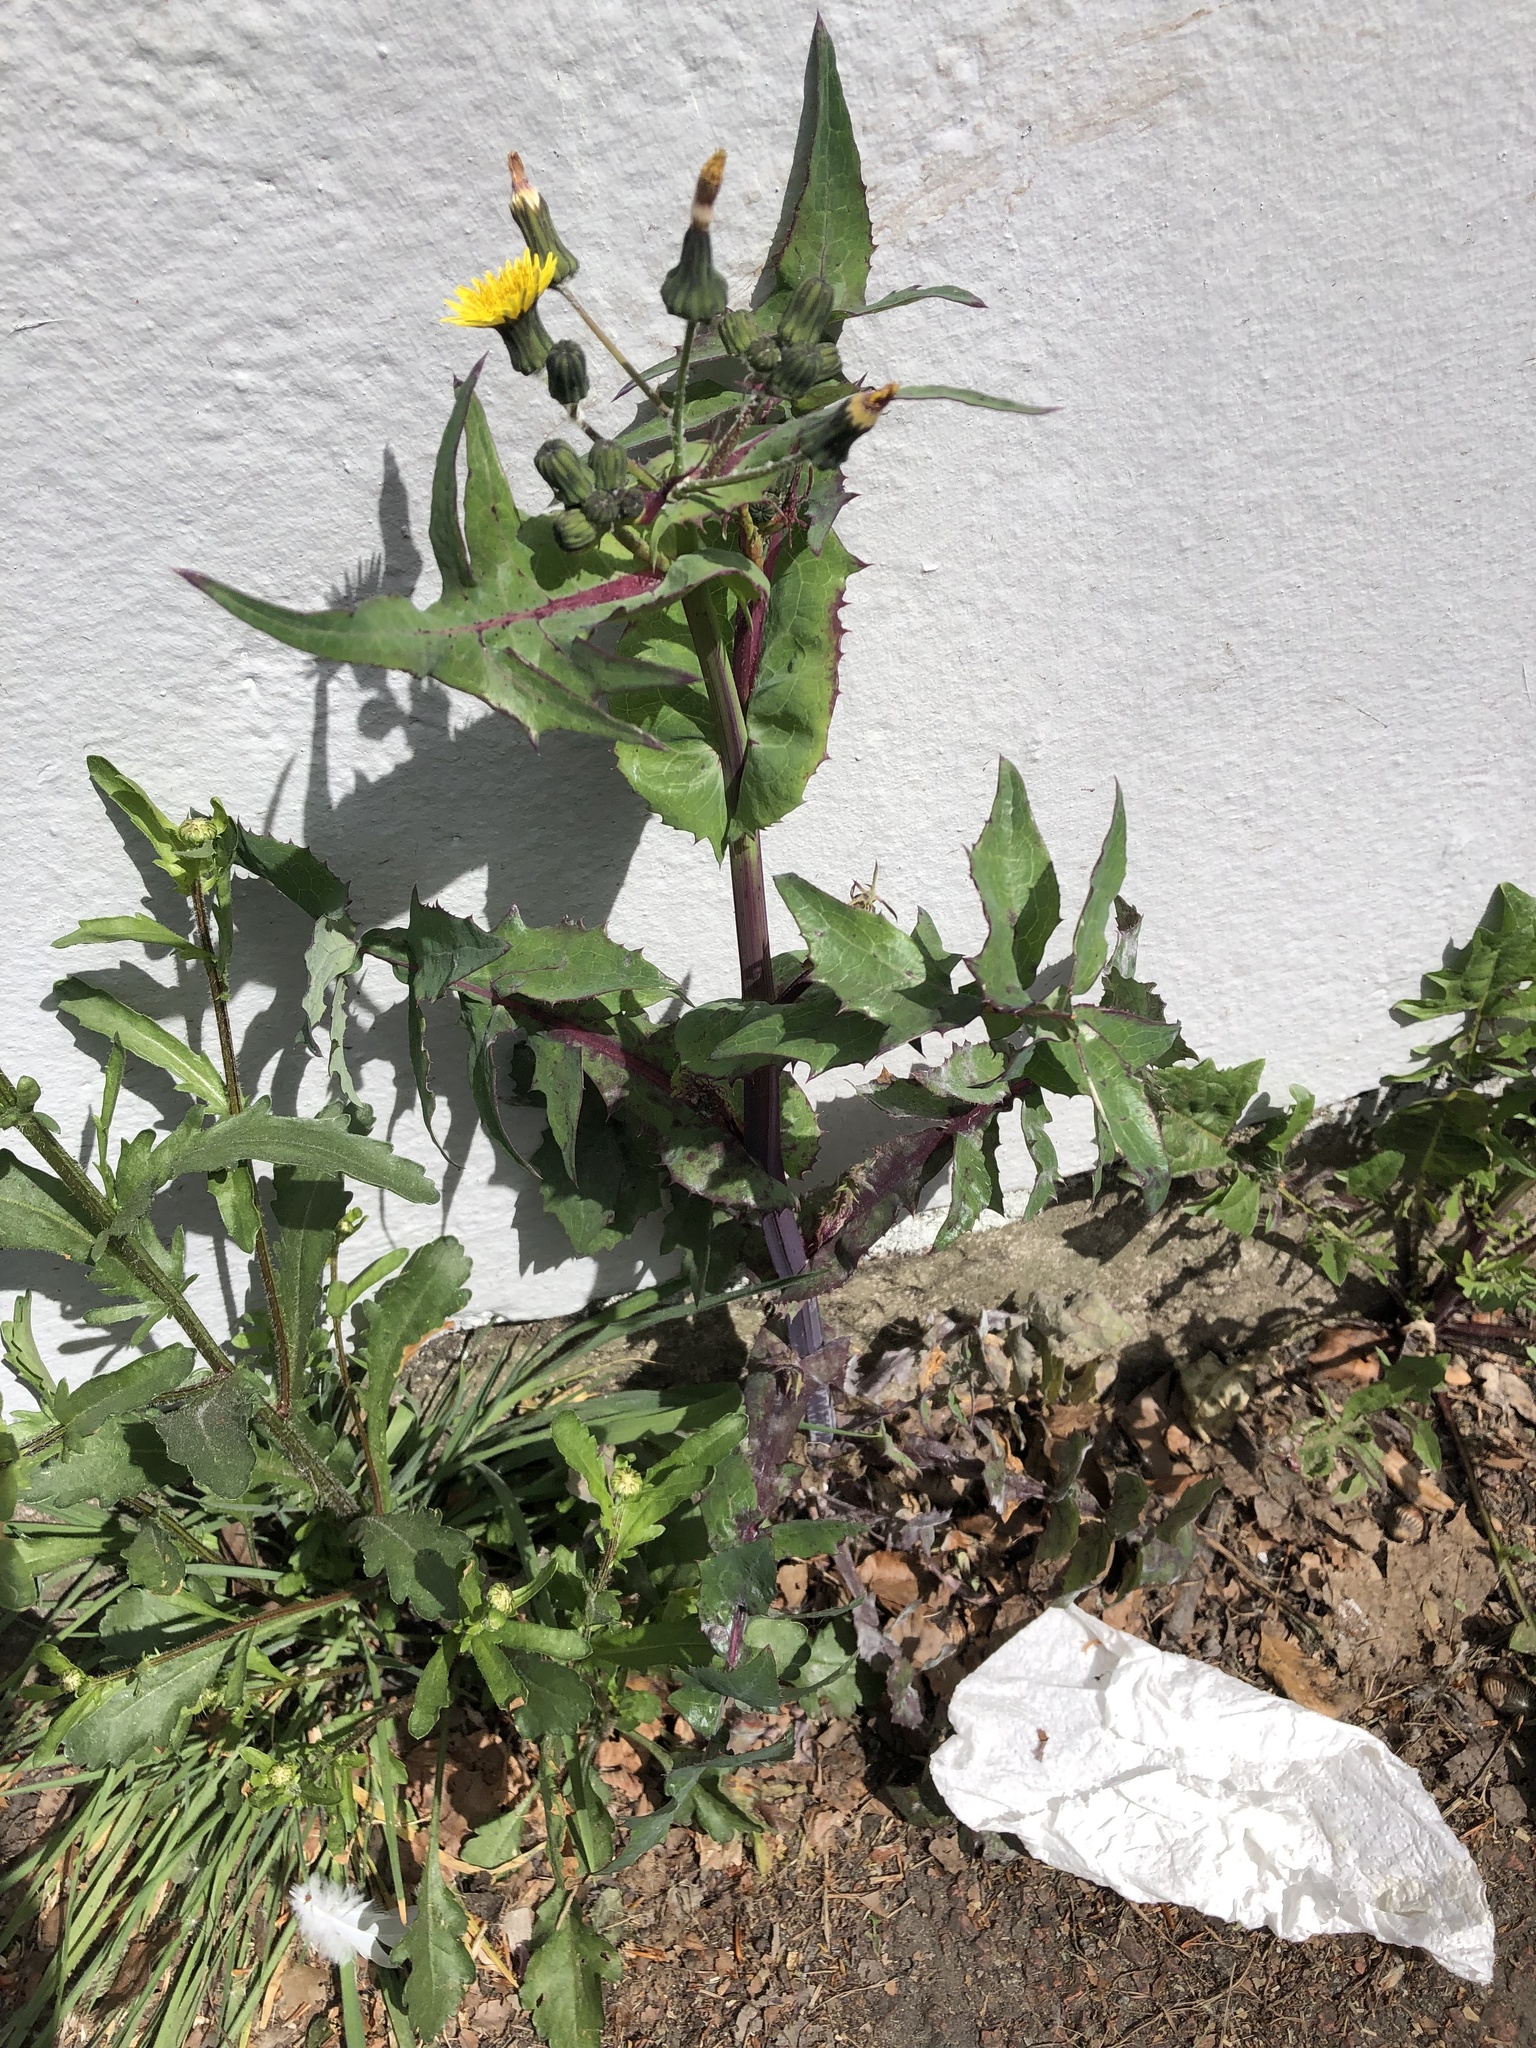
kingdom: Plantae
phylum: Tracheophyta
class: Magnoliopsida
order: Asterales
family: Asteraceae
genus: Sonchus
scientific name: Sonchus oleraceus
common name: Common sowthistle
